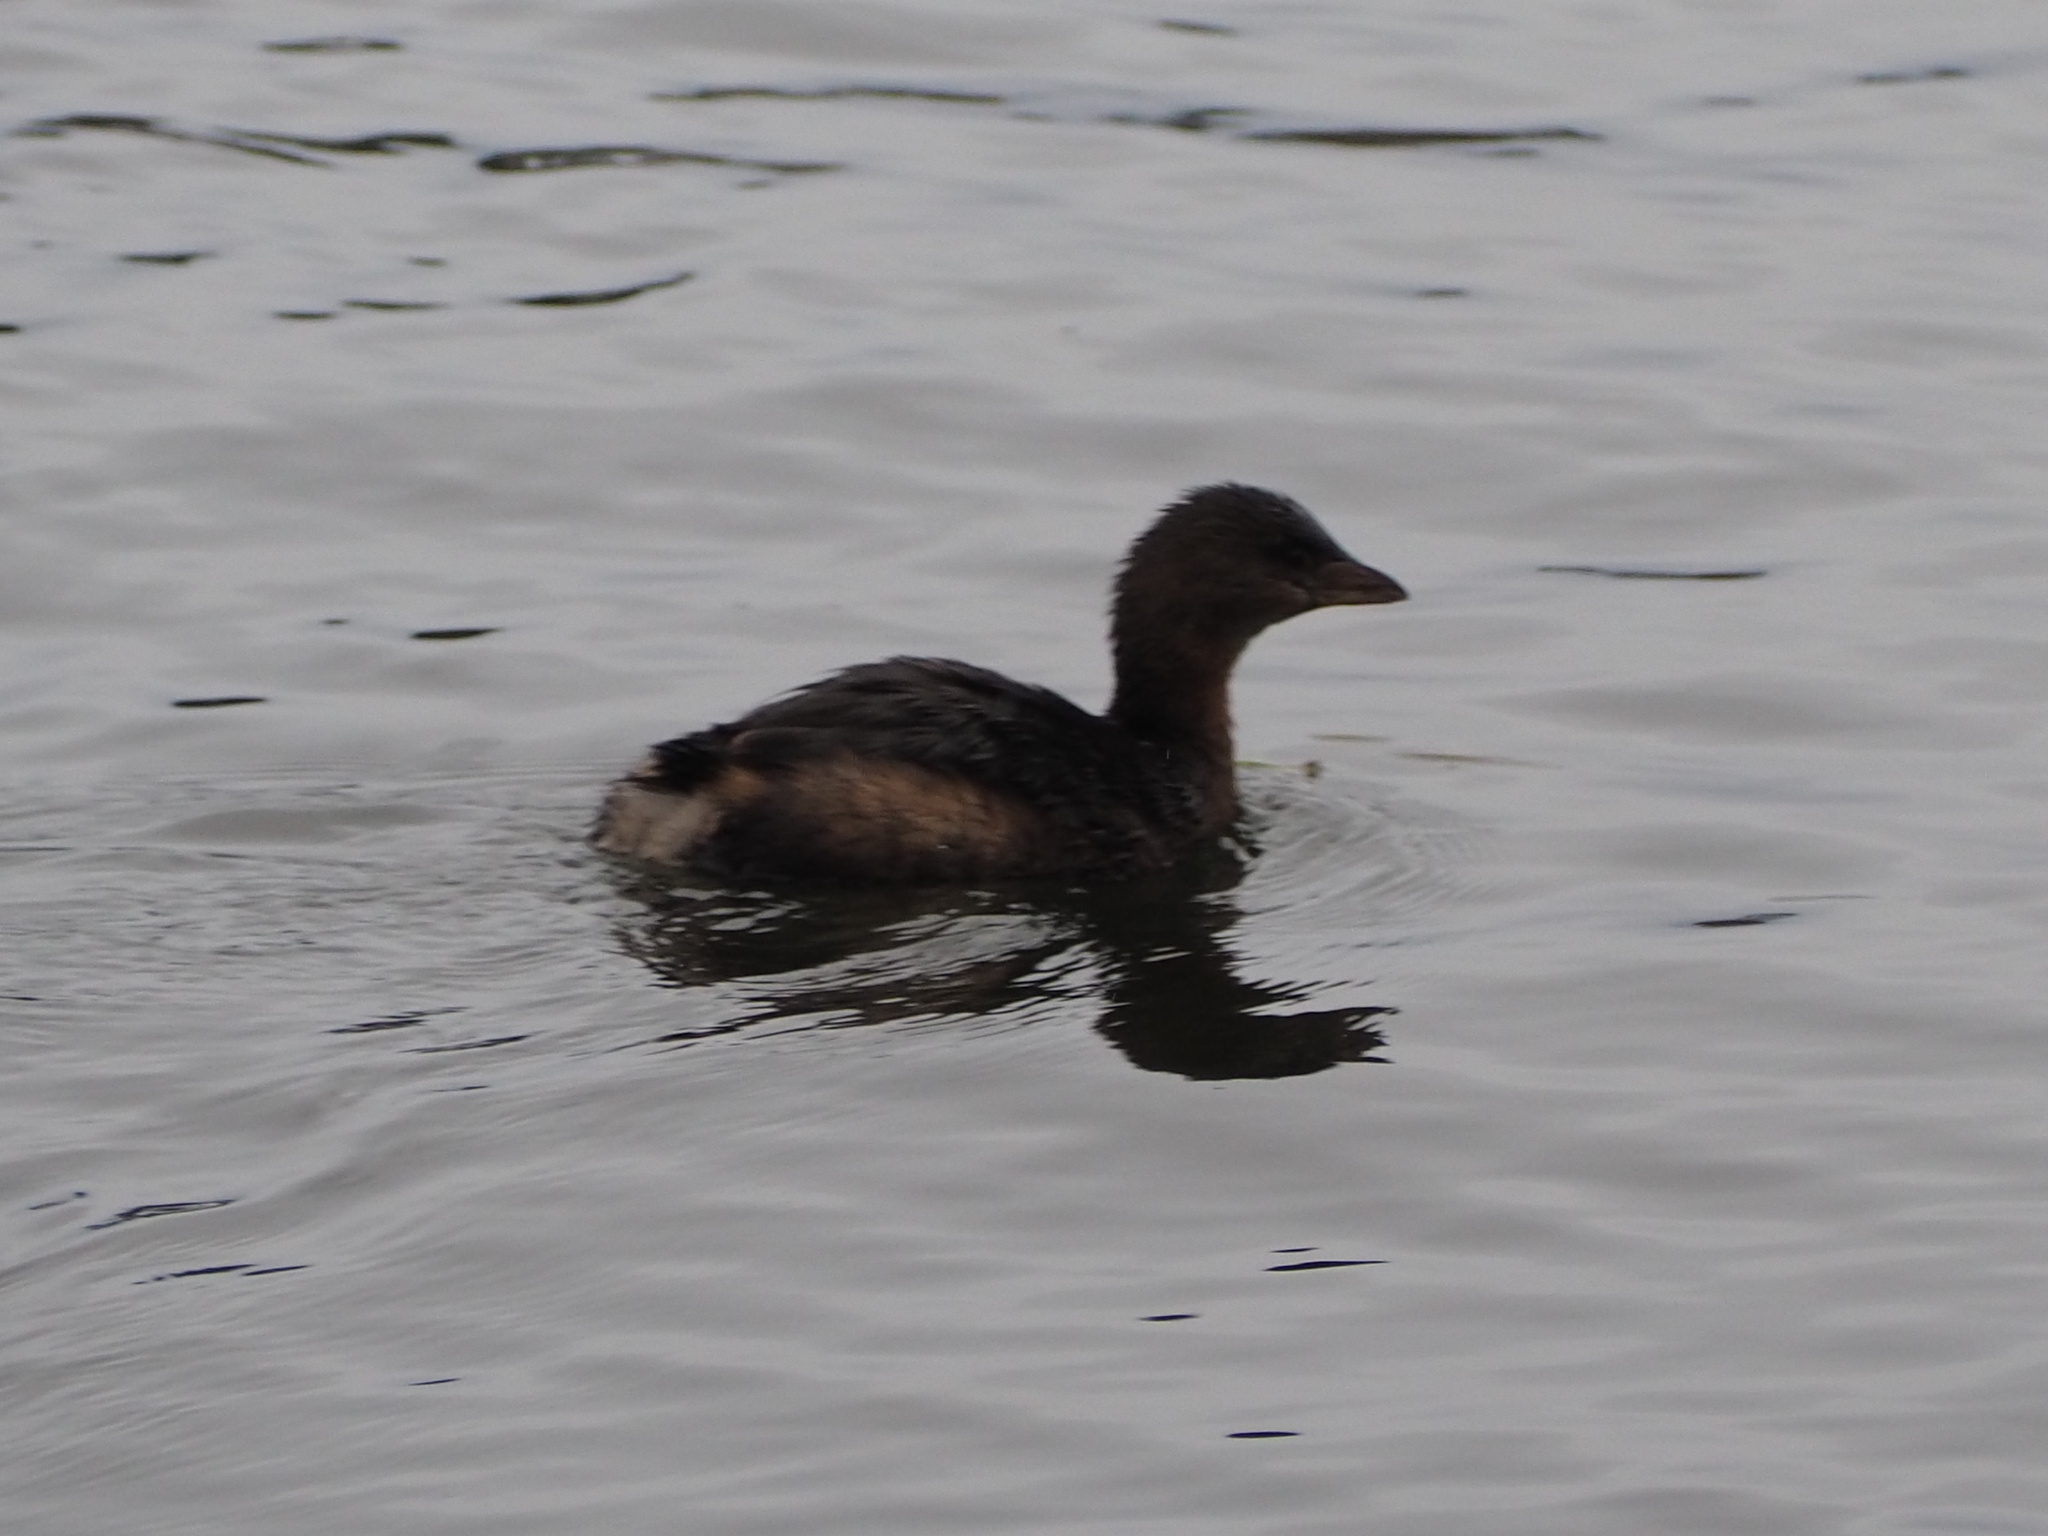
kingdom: Animalia
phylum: Chordata
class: Aves
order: Podicipediformes
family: Podicipedidae
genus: Podilymbus
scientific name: Podilymbus podiceps
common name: Pied-billed grebe
